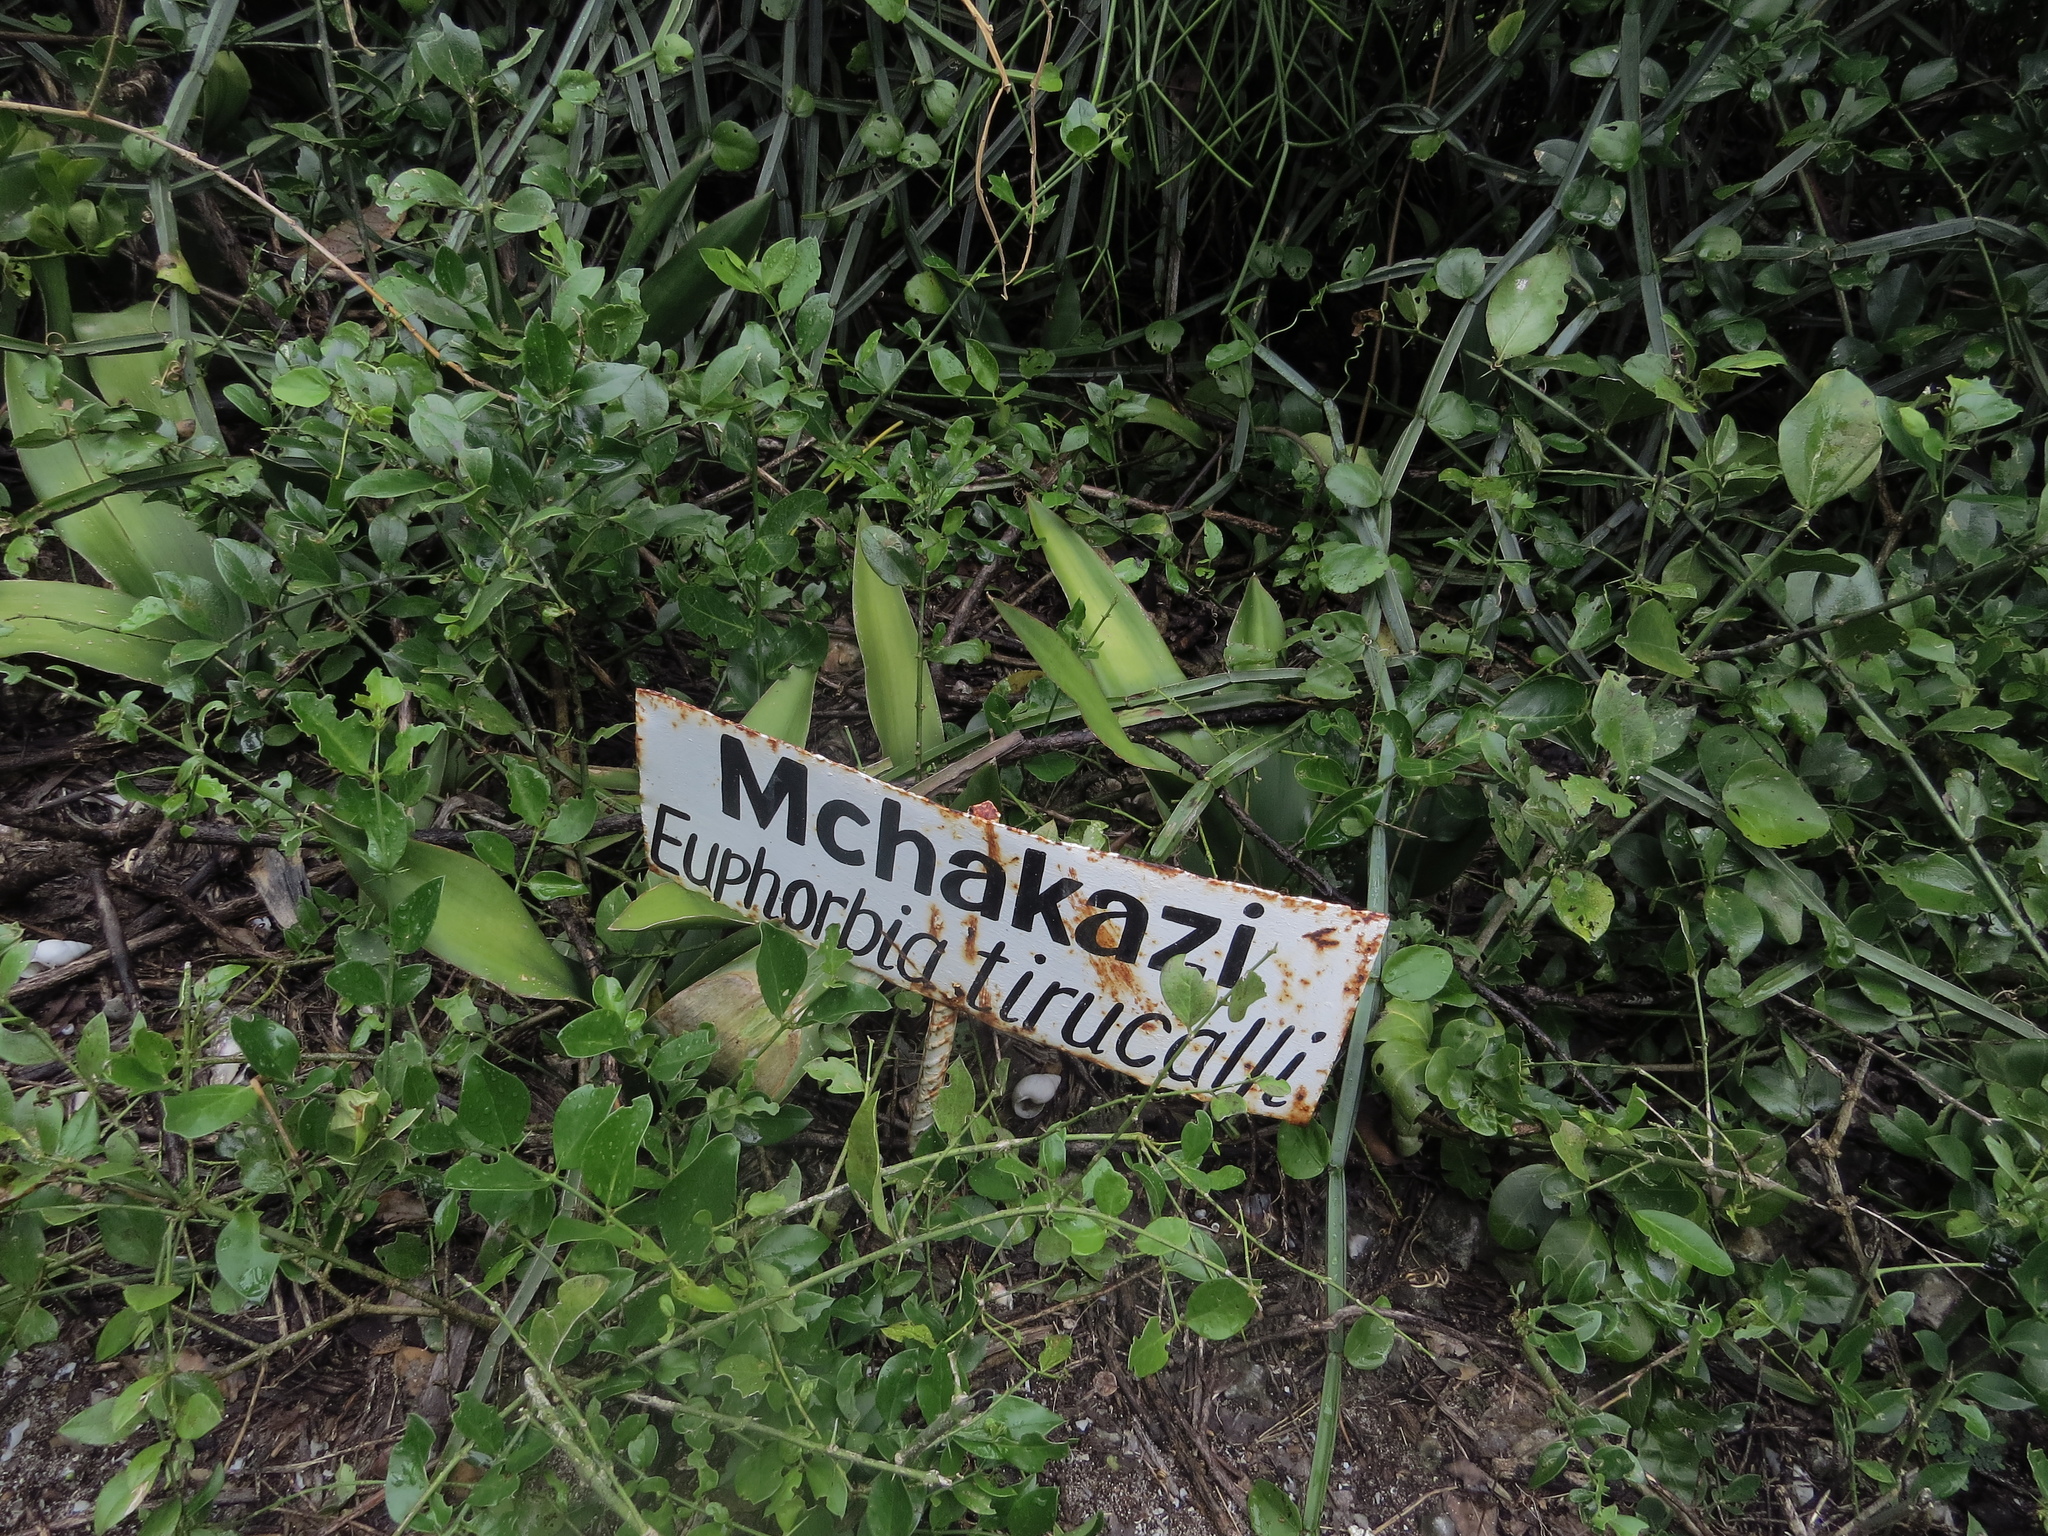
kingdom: Plantae
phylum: Tracheophyta
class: Magnoliopsida
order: Vitales
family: Vitaceae
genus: Cissus
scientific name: Cissus quadrangularis
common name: Veldt-grape
